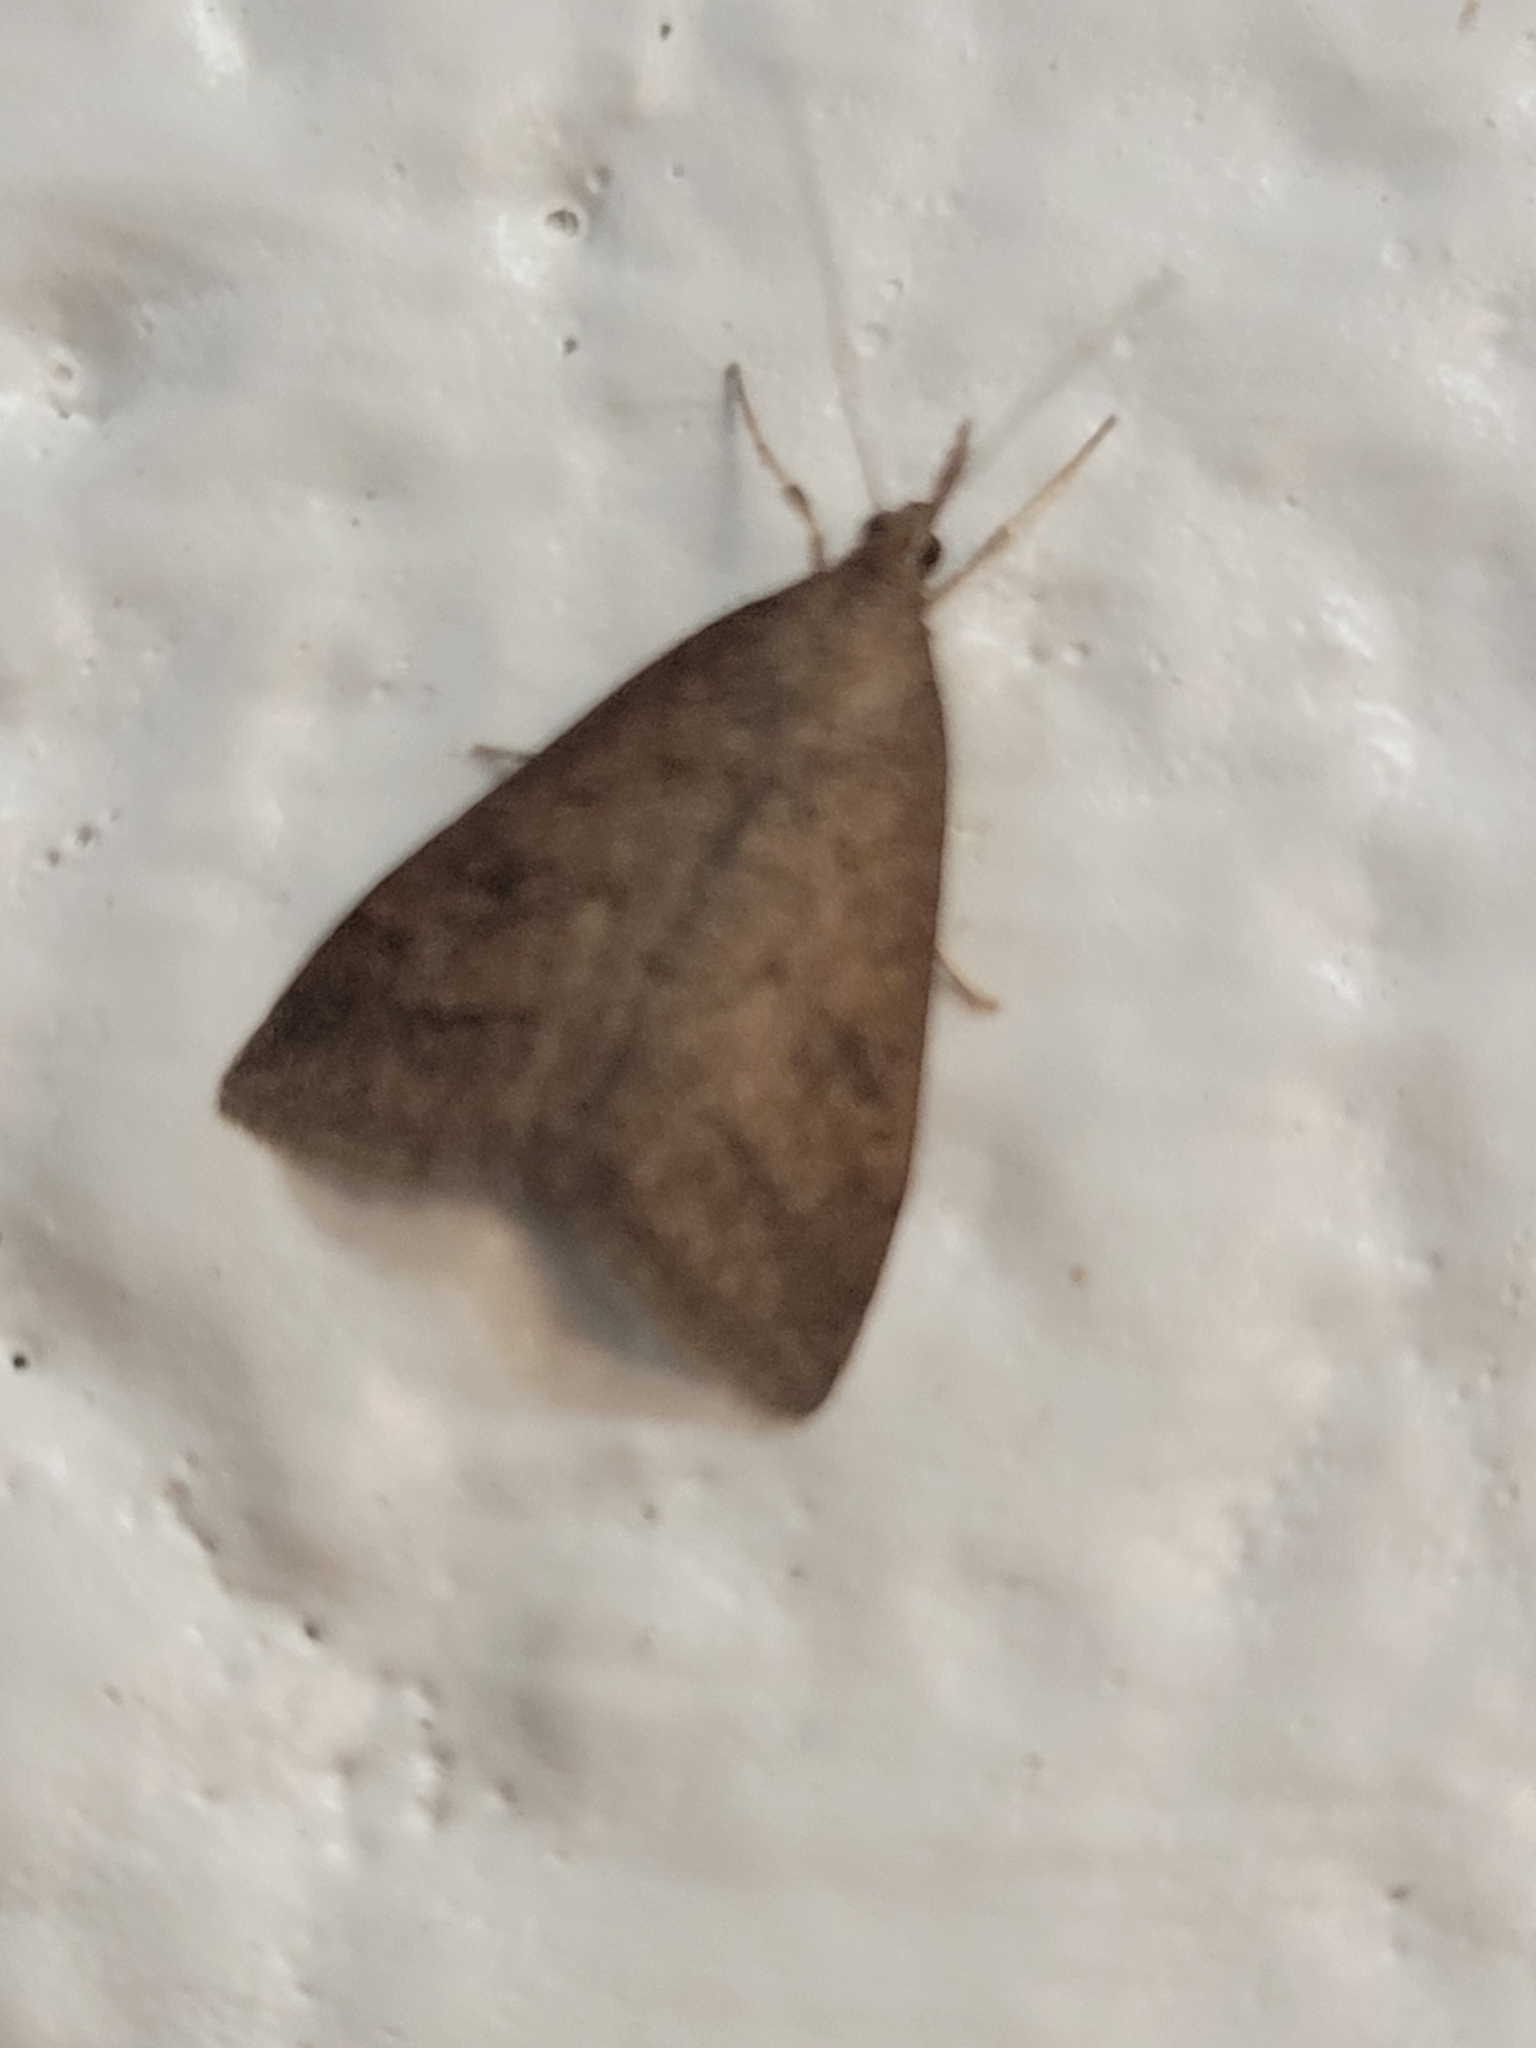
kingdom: Animalia
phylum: Arthropoda
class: Insecta
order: Lepidoptera
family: Crambidae
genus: Udea
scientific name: Udea rubigalis
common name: Celery leaftier moth
